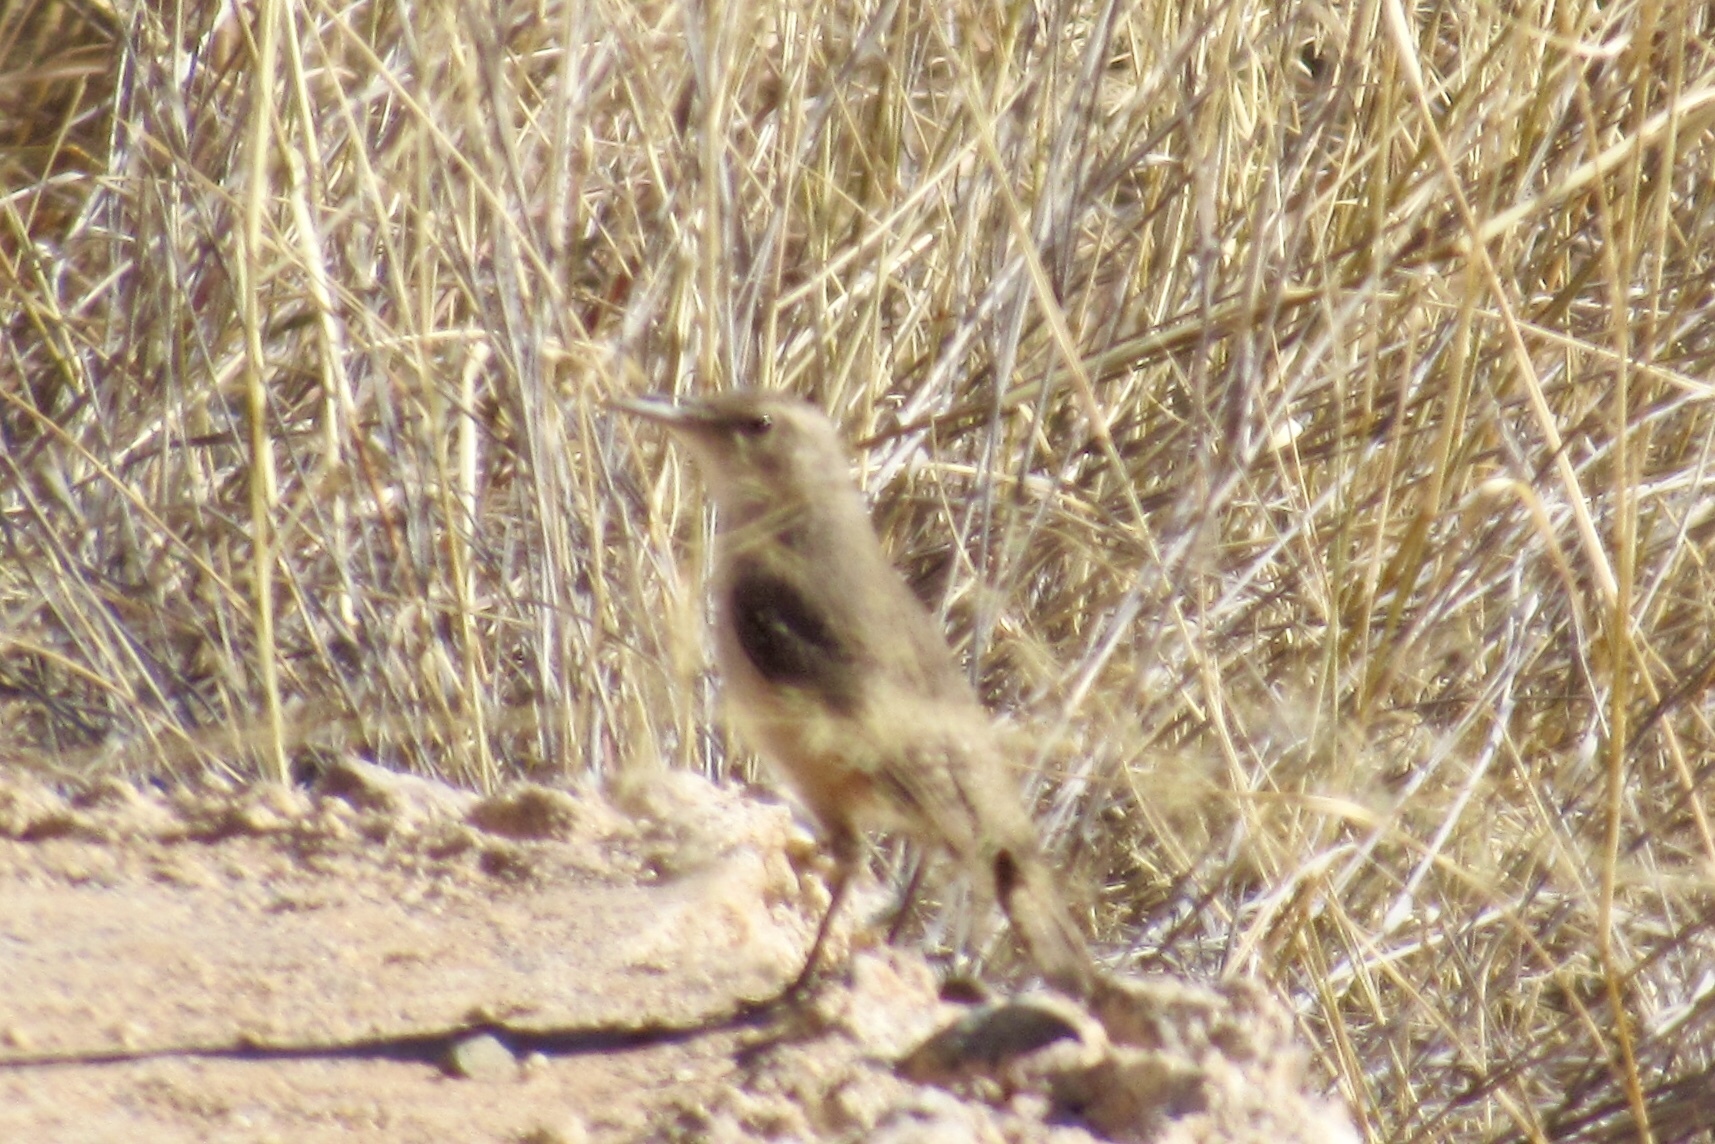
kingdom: Animalia
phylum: Chordata
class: Aves
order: Passeriformes
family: Troglodytidae
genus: Salpinctes
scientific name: Salpinctes obsoletus
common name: Rock wren
